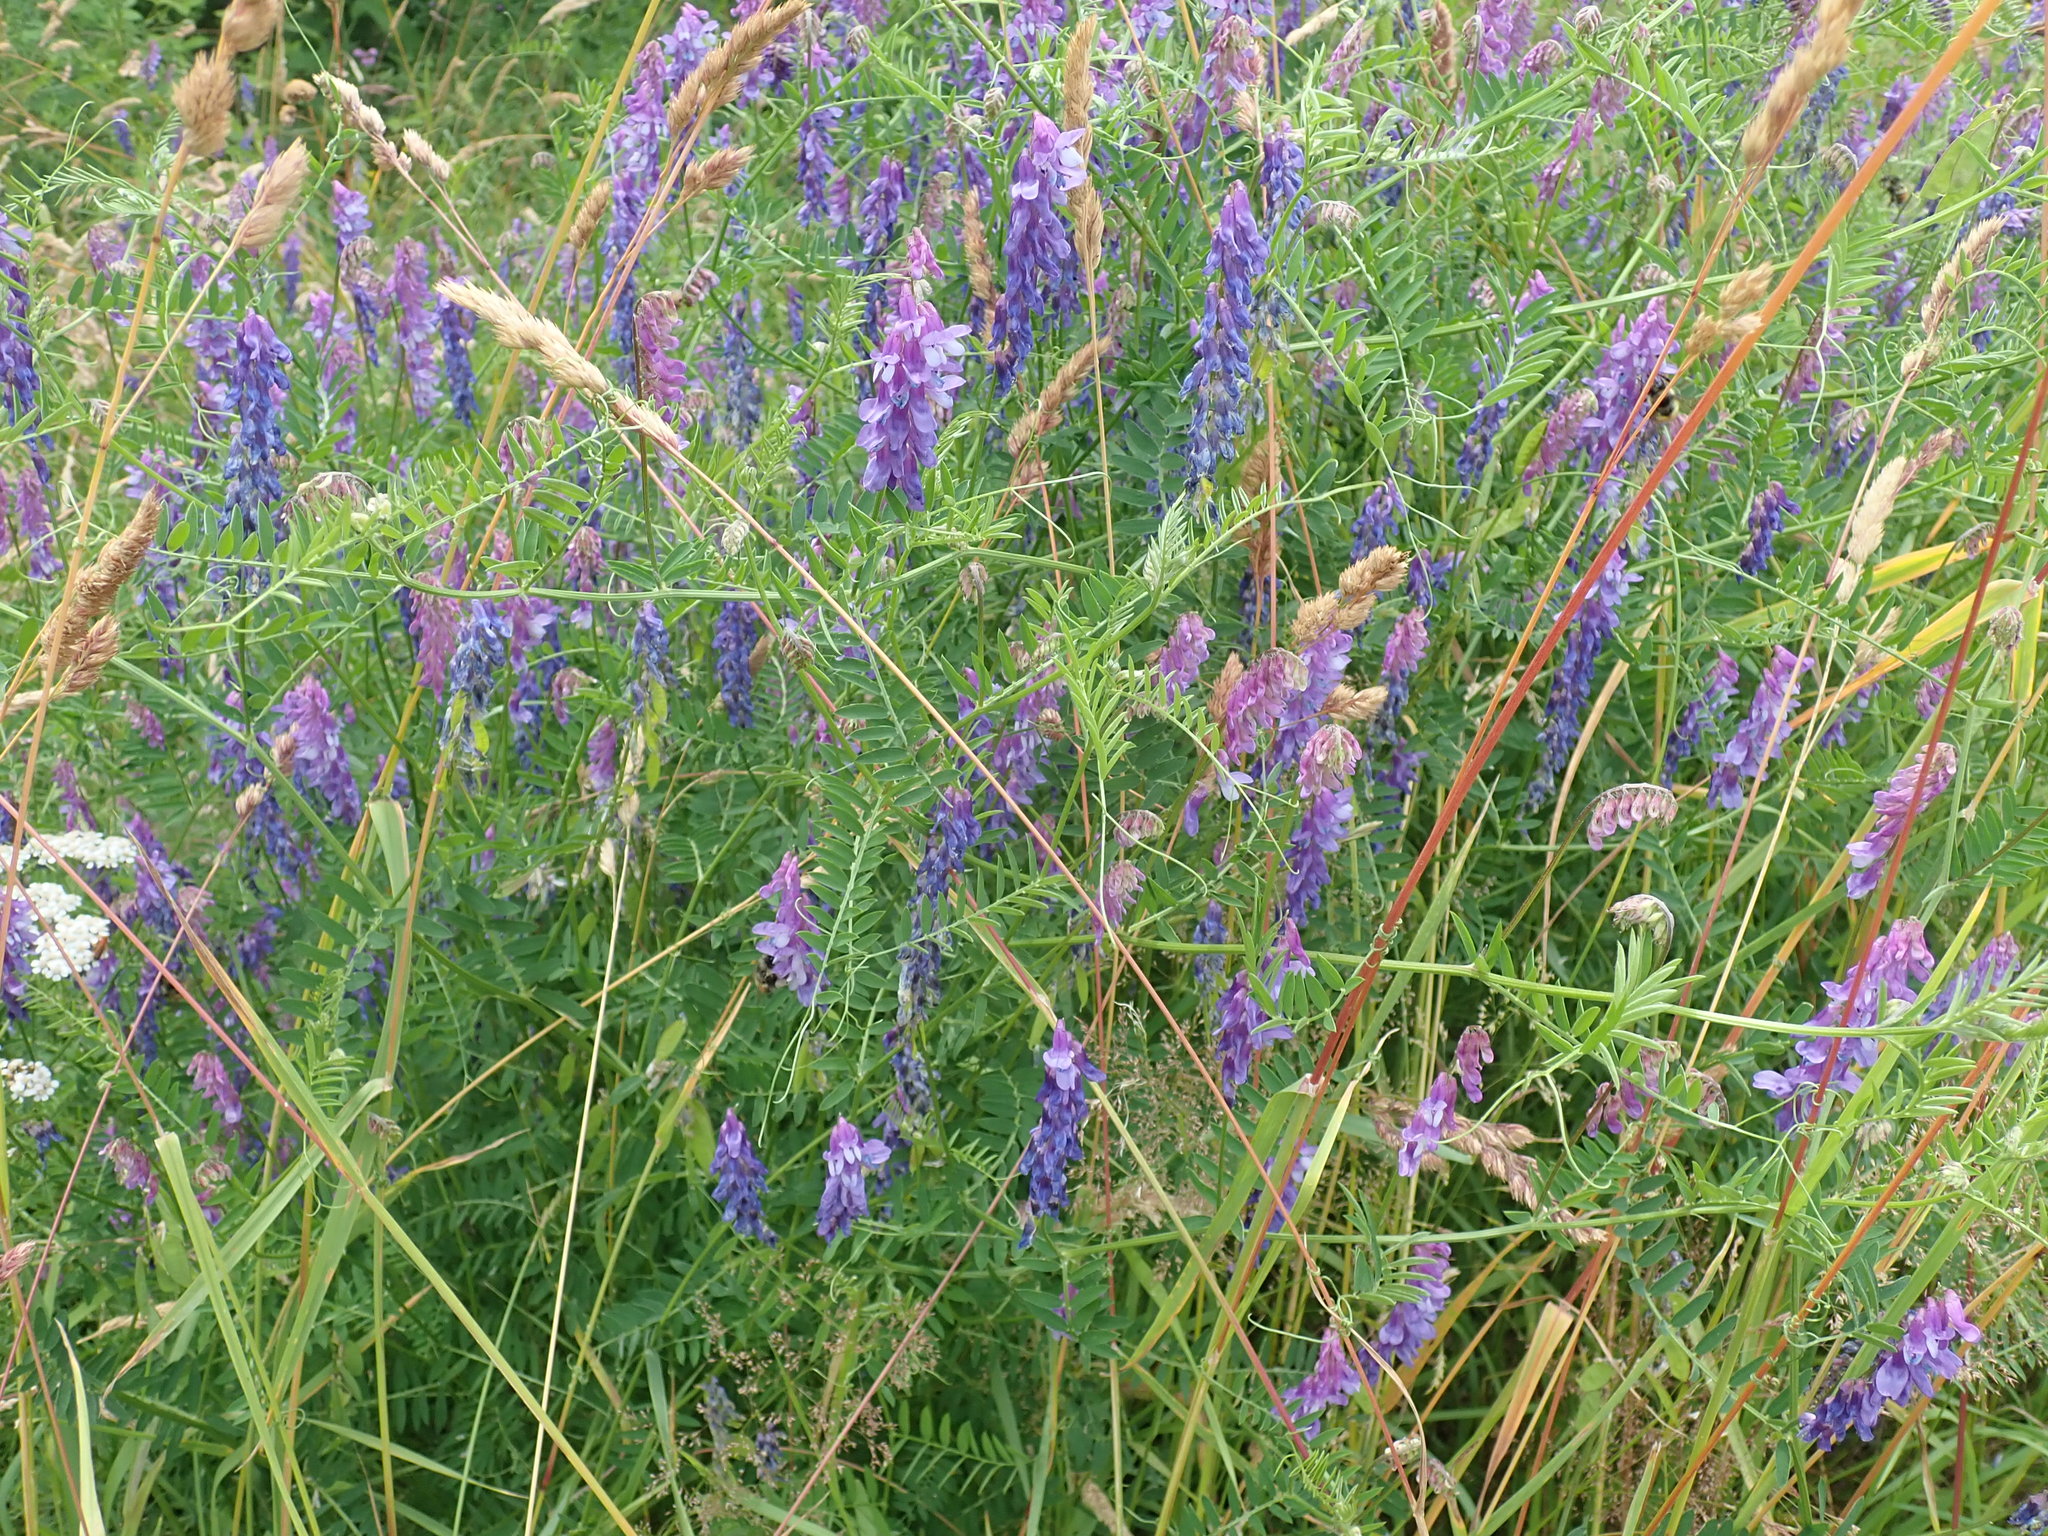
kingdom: Plantae
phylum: Tracheophyta
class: Magnoliopsida
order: Fabales
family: Fabaceae
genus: Vicia
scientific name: Vicia cracca
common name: Bird vetch
